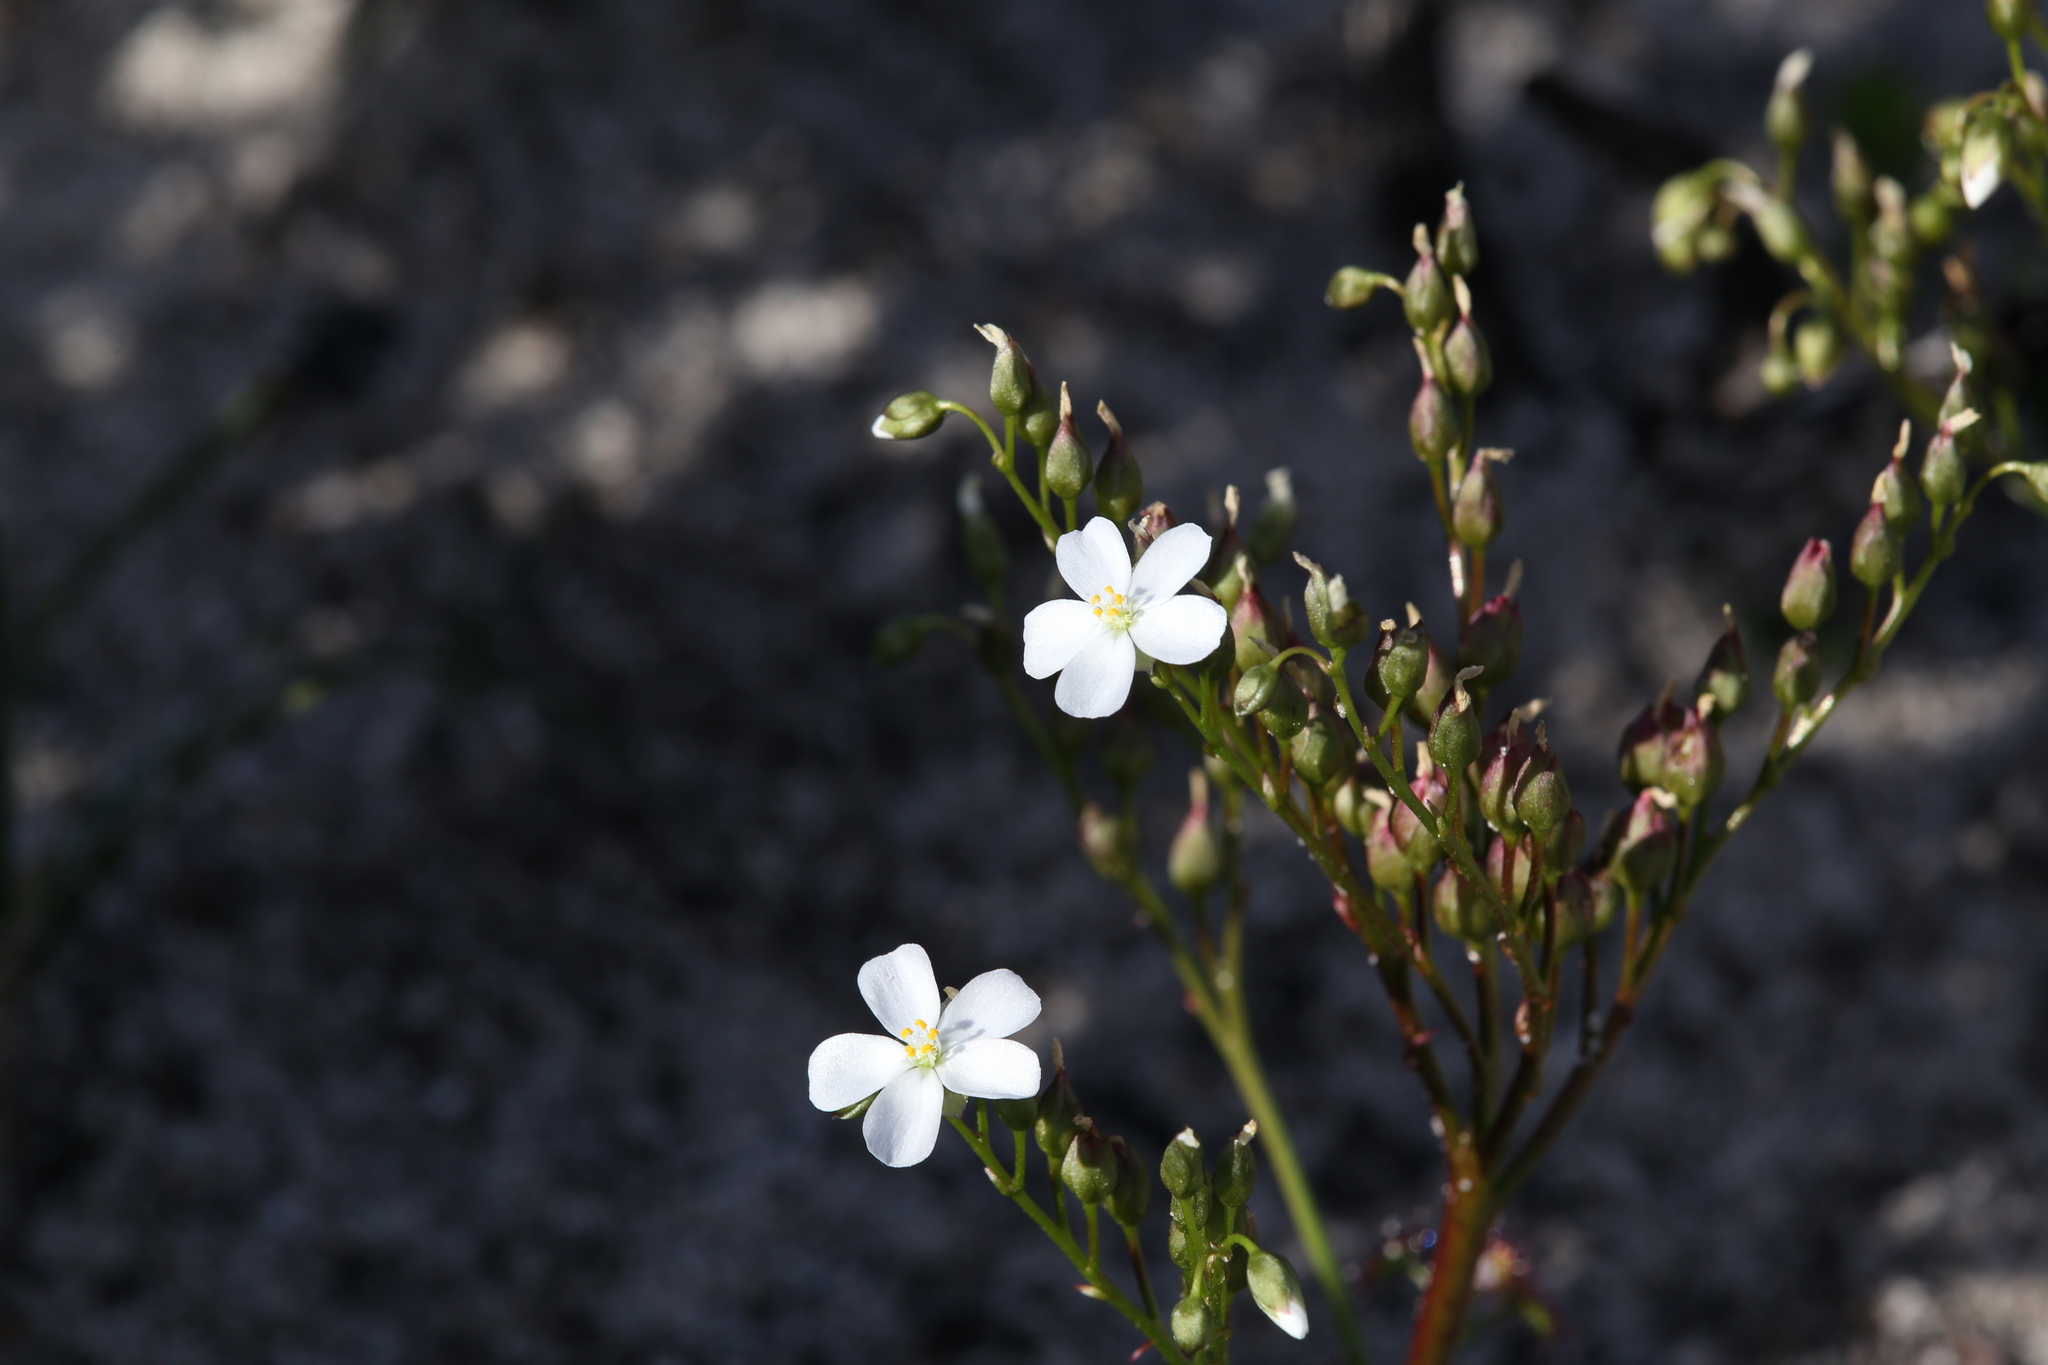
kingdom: Plantae
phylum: Tracheophyta
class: Magnoliopsida
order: Caryophyllales
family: Droseraceae
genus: Drosera
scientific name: Drosera stolonifera
